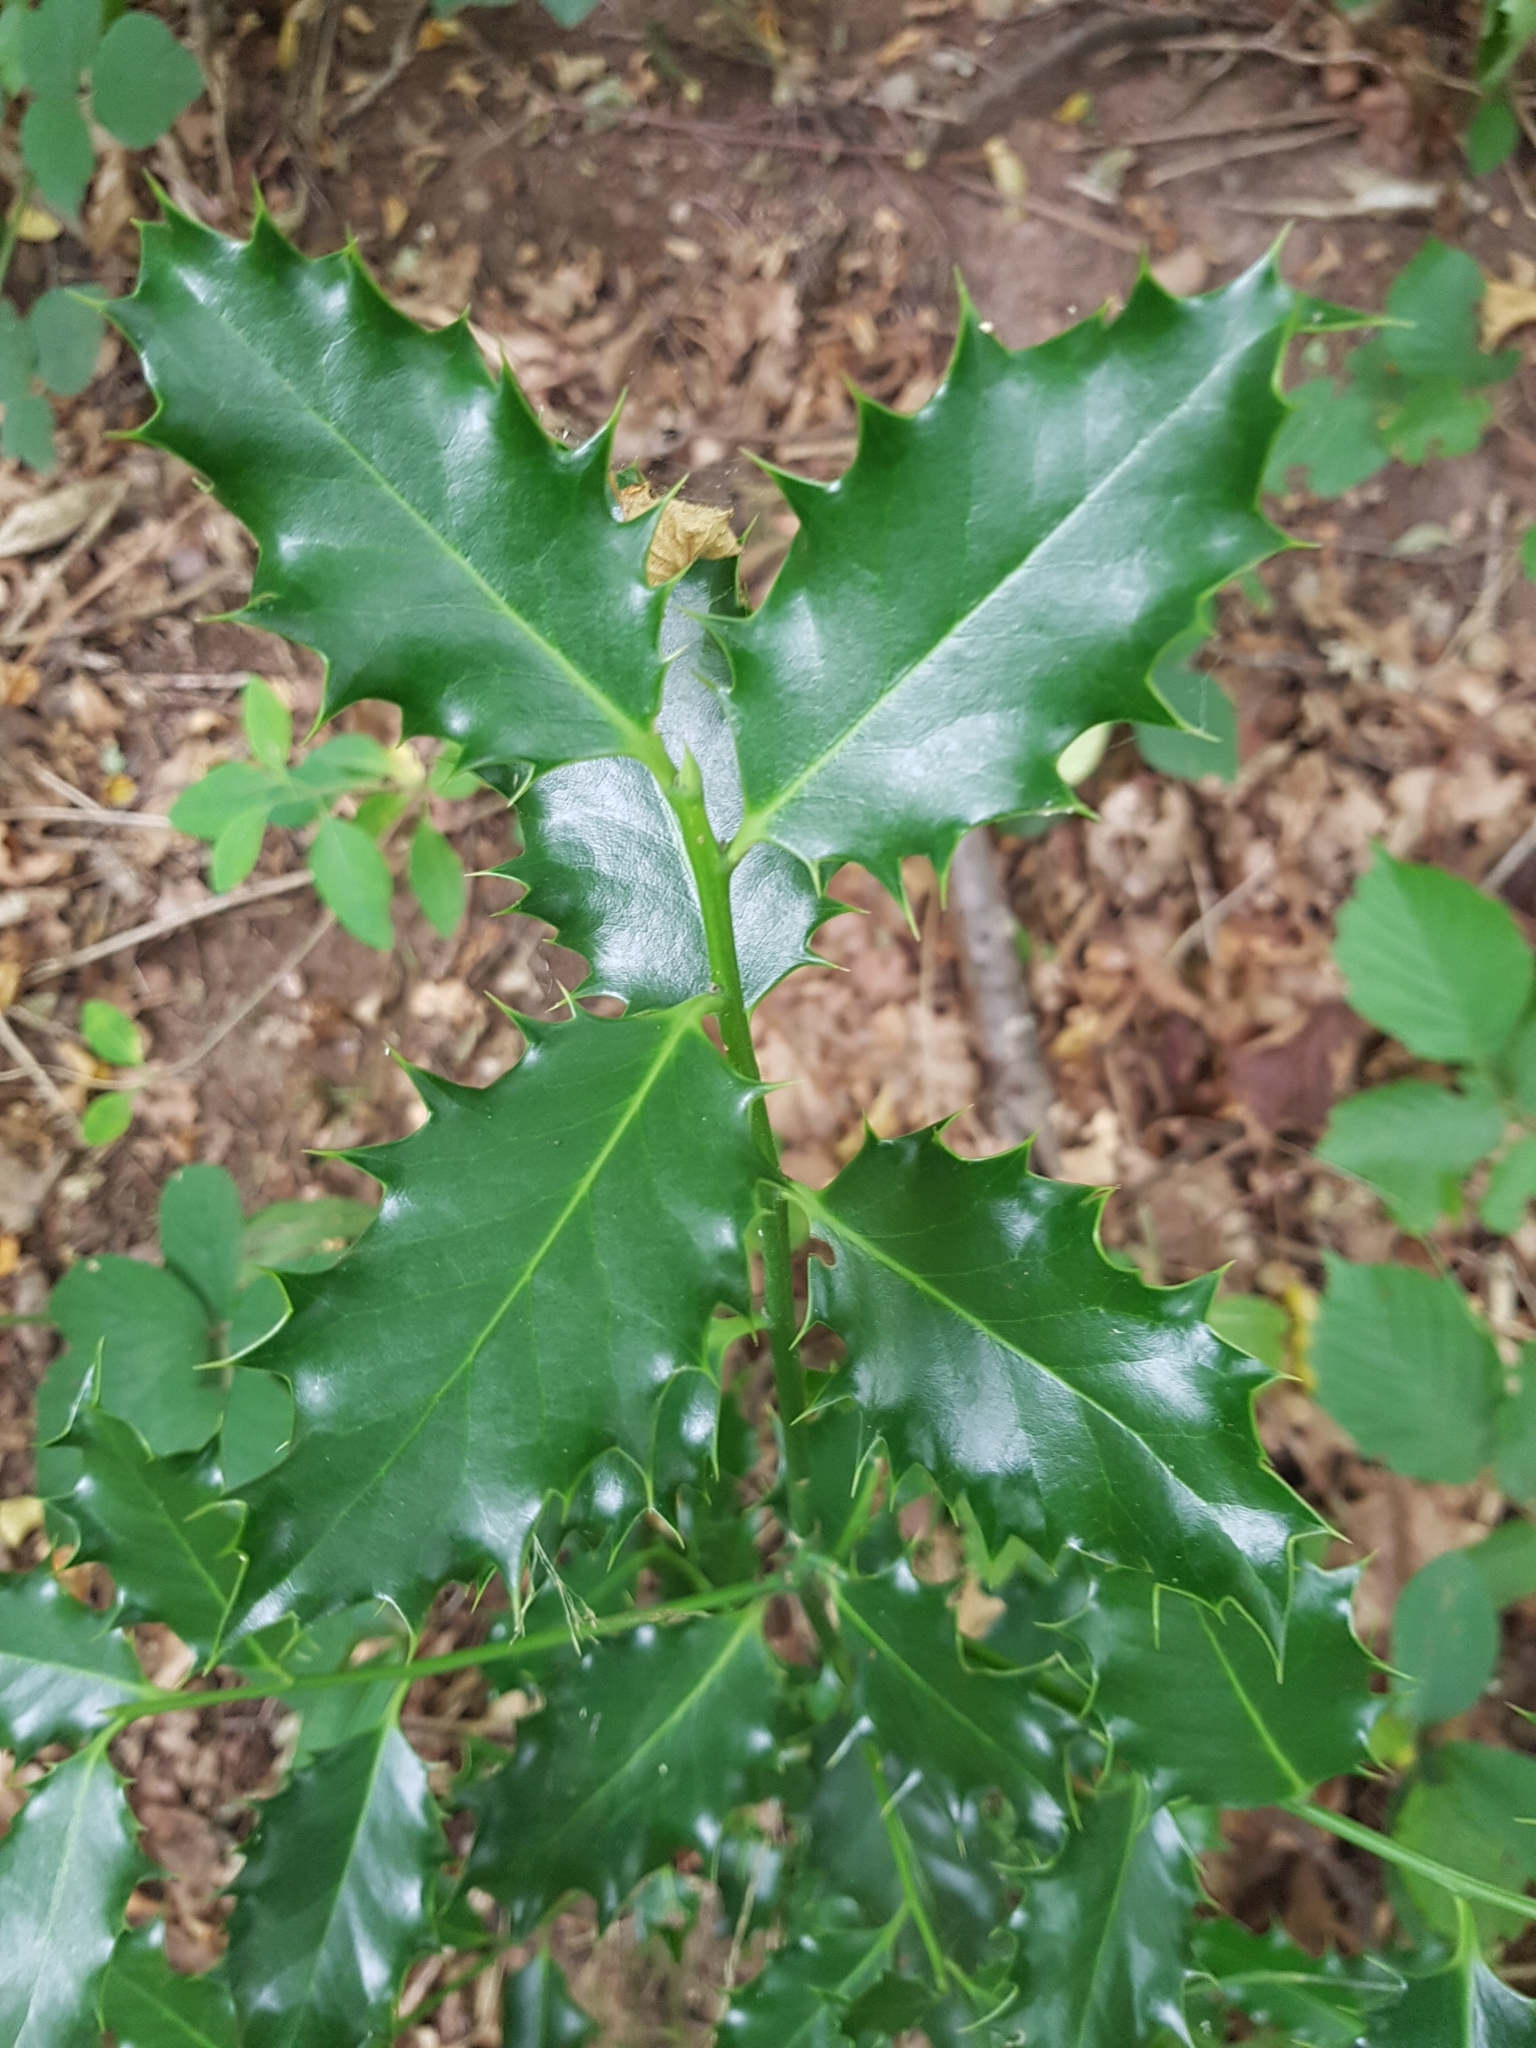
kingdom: Plantae
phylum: Tracheophyta
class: Magnoliopsida
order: Aquifoliales
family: Aquifoliaceae
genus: Ilex
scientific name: Ilex aquifolium
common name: English holly
